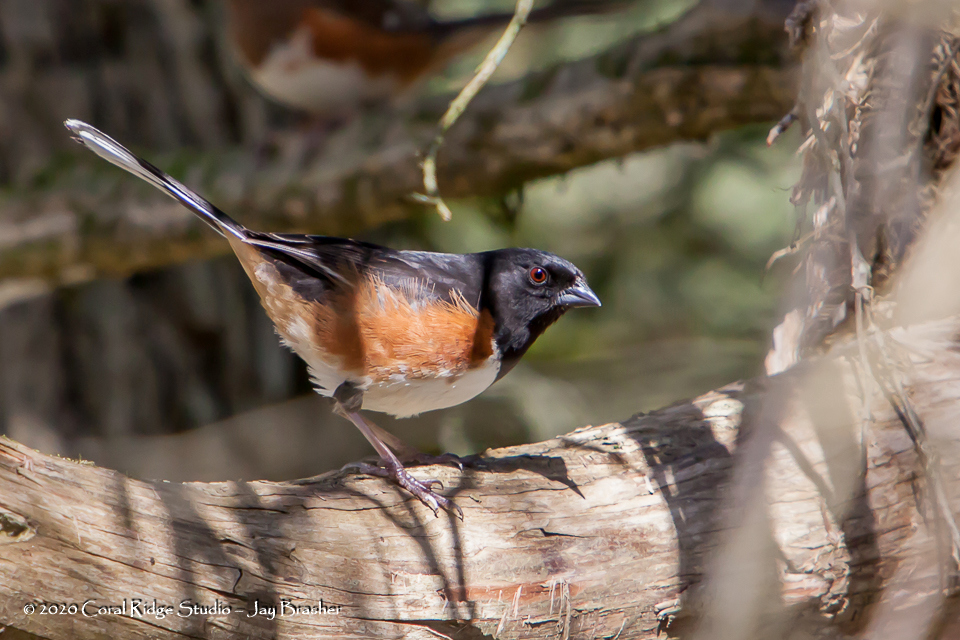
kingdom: Animalia
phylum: Chordata
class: Aves
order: Passeriformes
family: Passerellidae
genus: Pipilo
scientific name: Pipilo erythrophthalmus
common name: Eastern towhee
